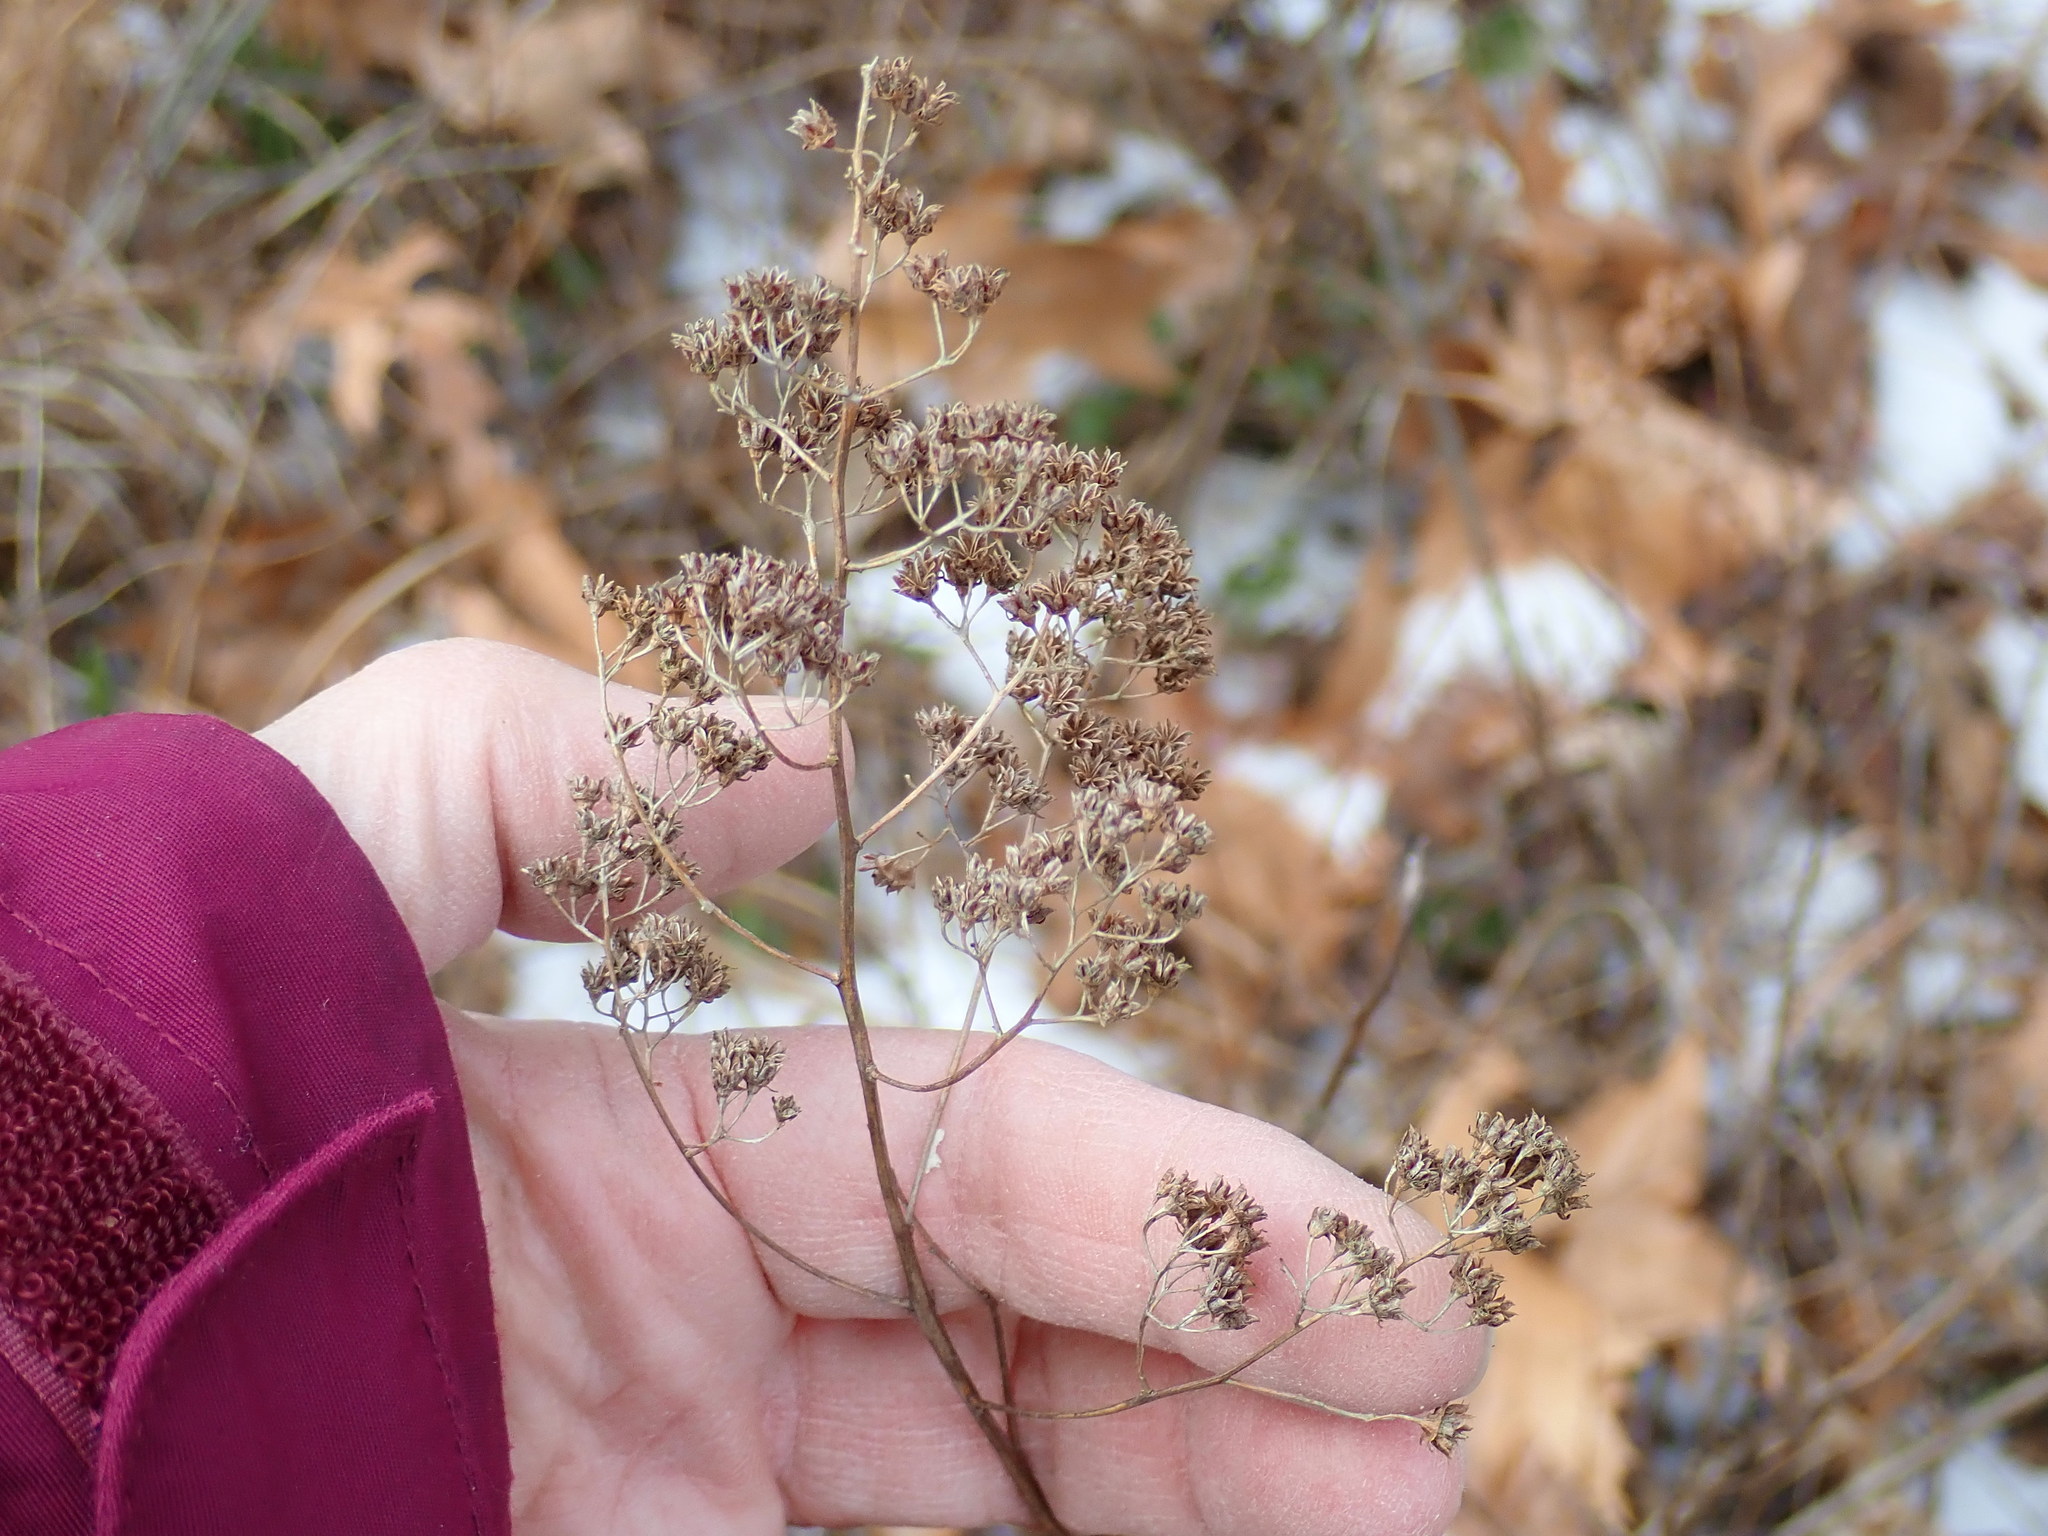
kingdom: Plantae
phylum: Tracheophyta
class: Magnoliopsida
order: Rosales
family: Rosaceae
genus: Spiraea
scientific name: Spiraea alba
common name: Pale bridewort
